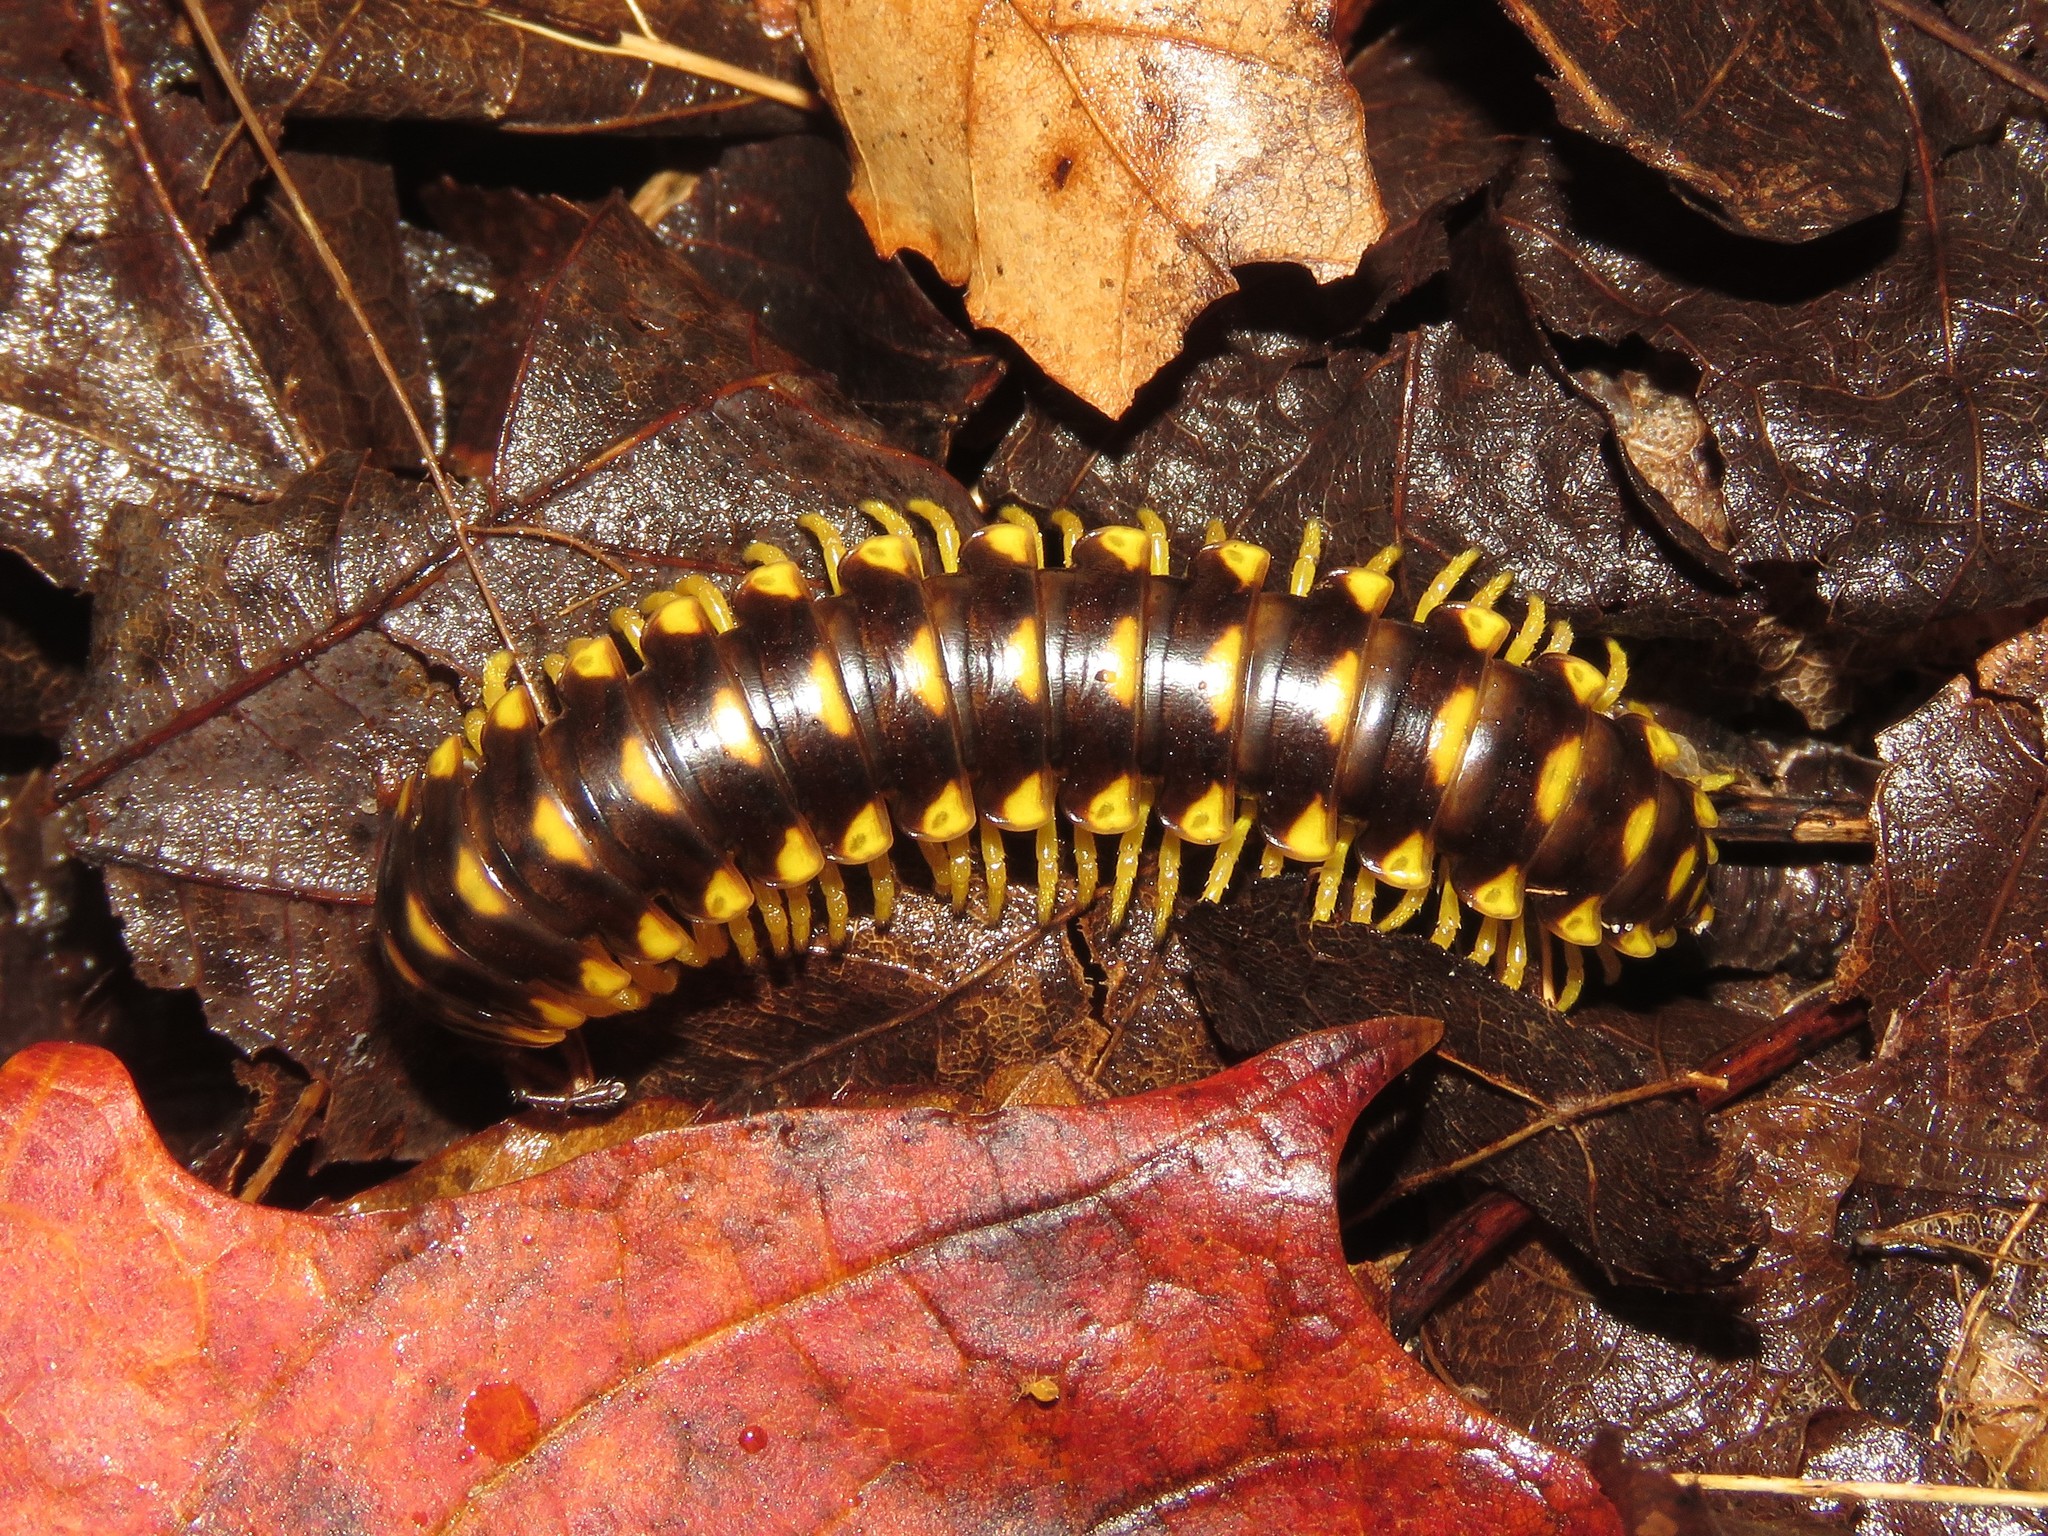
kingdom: Animalia
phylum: Arthropoda
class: Diplopoda
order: Polydesmida
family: Xystodesmidae
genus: Rudiloria
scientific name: Rudiloria trimaculata
